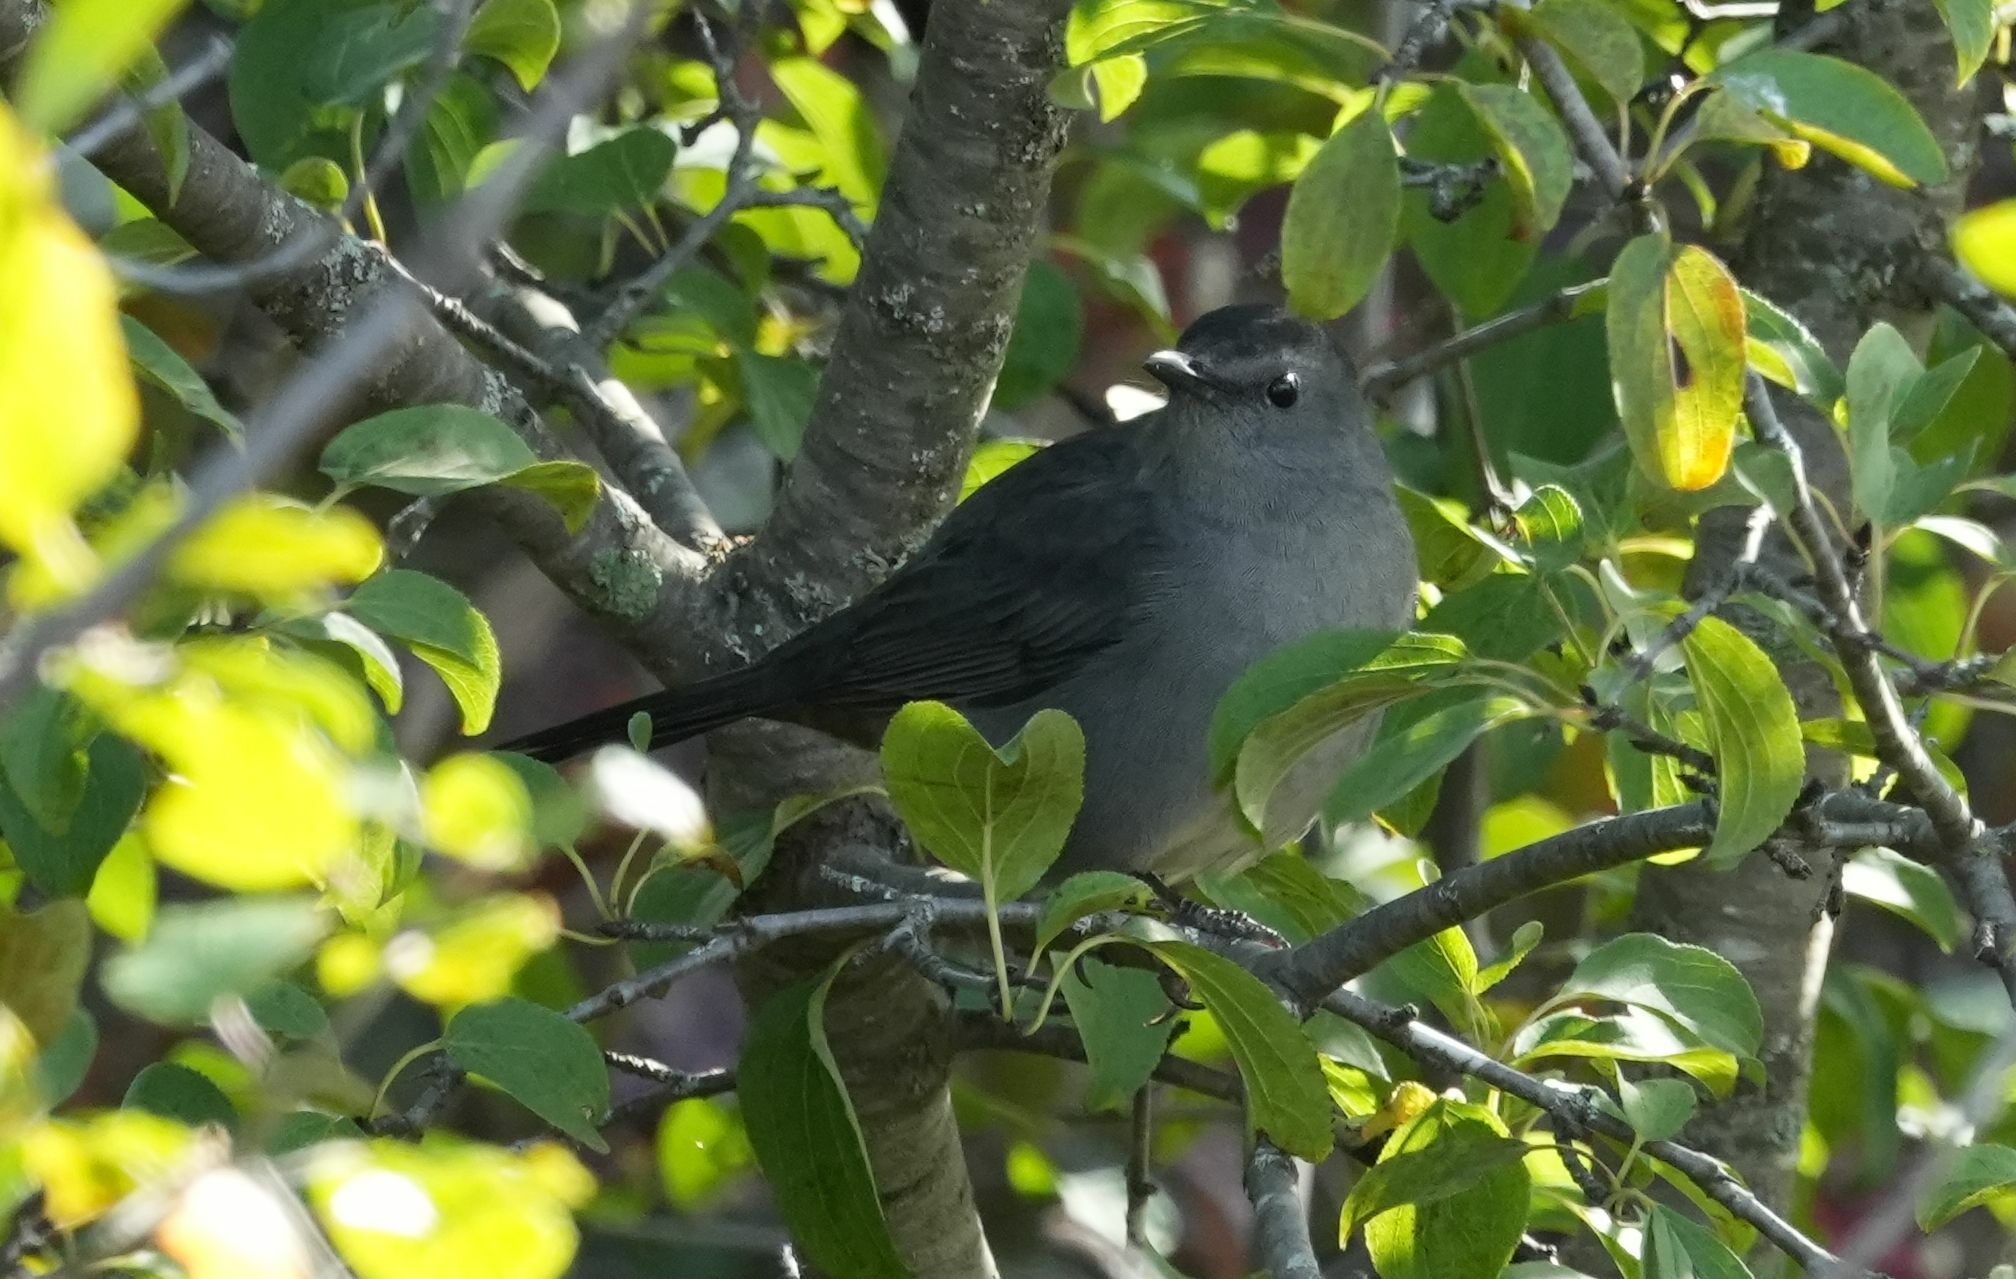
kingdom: Animalia
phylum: Chordata
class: Aves
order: Passeriformes
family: Mimidae
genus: Dumetella
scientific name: Dumetella carolinensis
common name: Gray catbird
